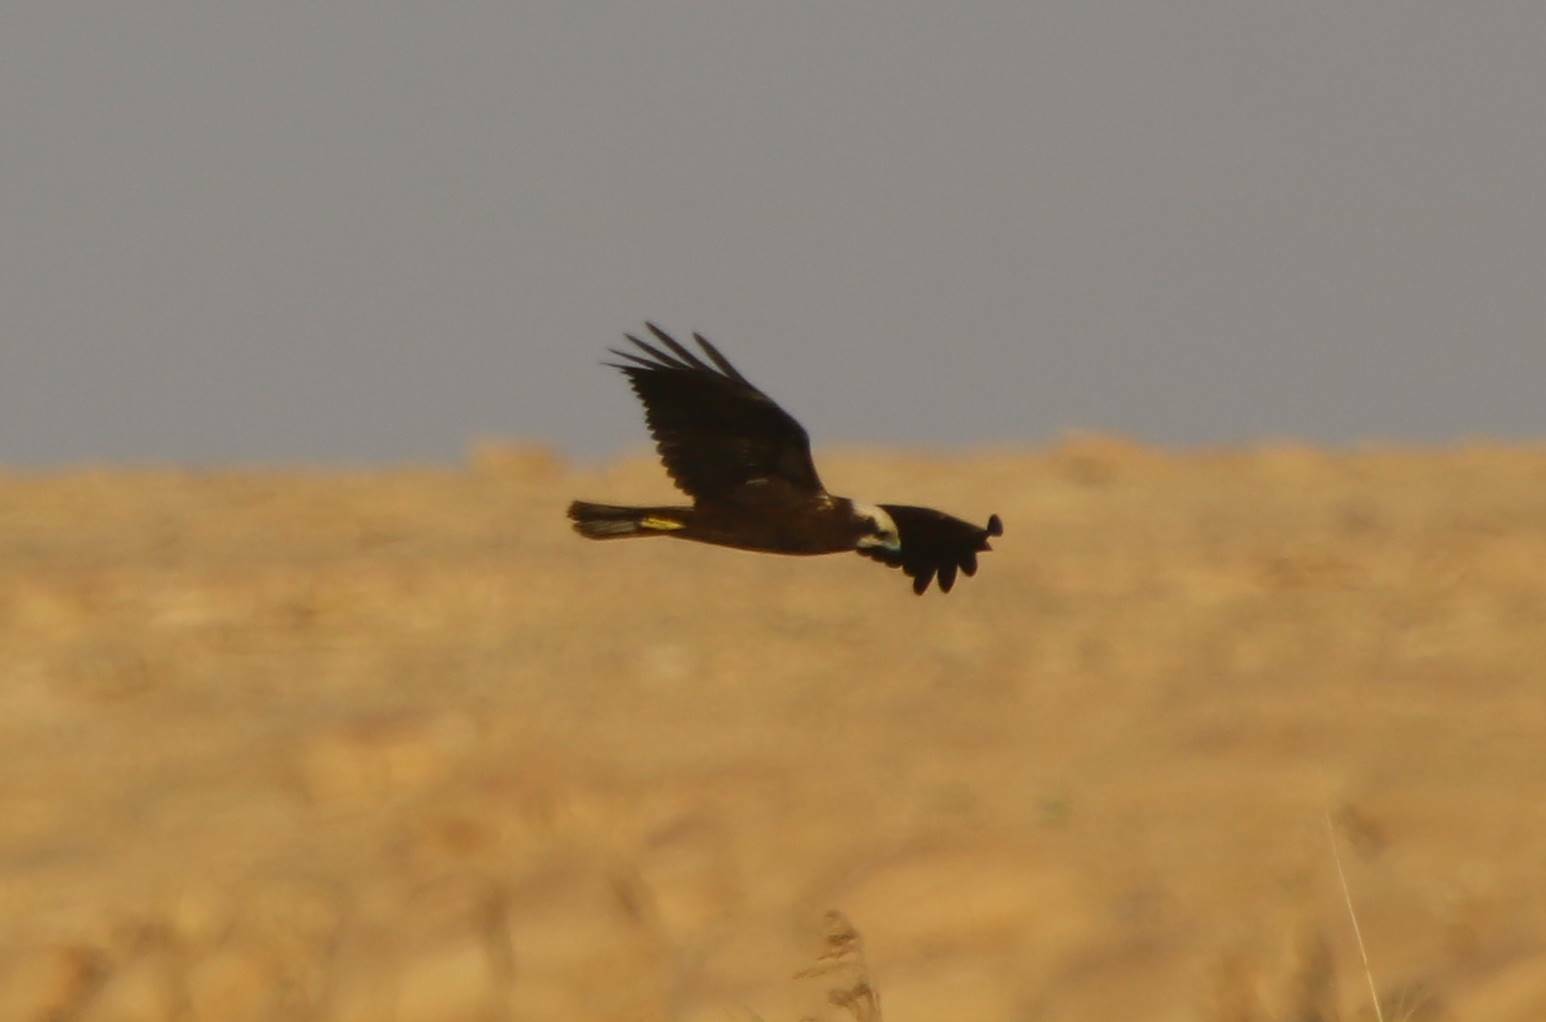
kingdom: Animalia
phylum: Chordata
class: Aves
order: Accipitriformes
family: Accipitridae
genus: Circus
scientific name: Circus aeruginosus
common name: Western marsh harrier
